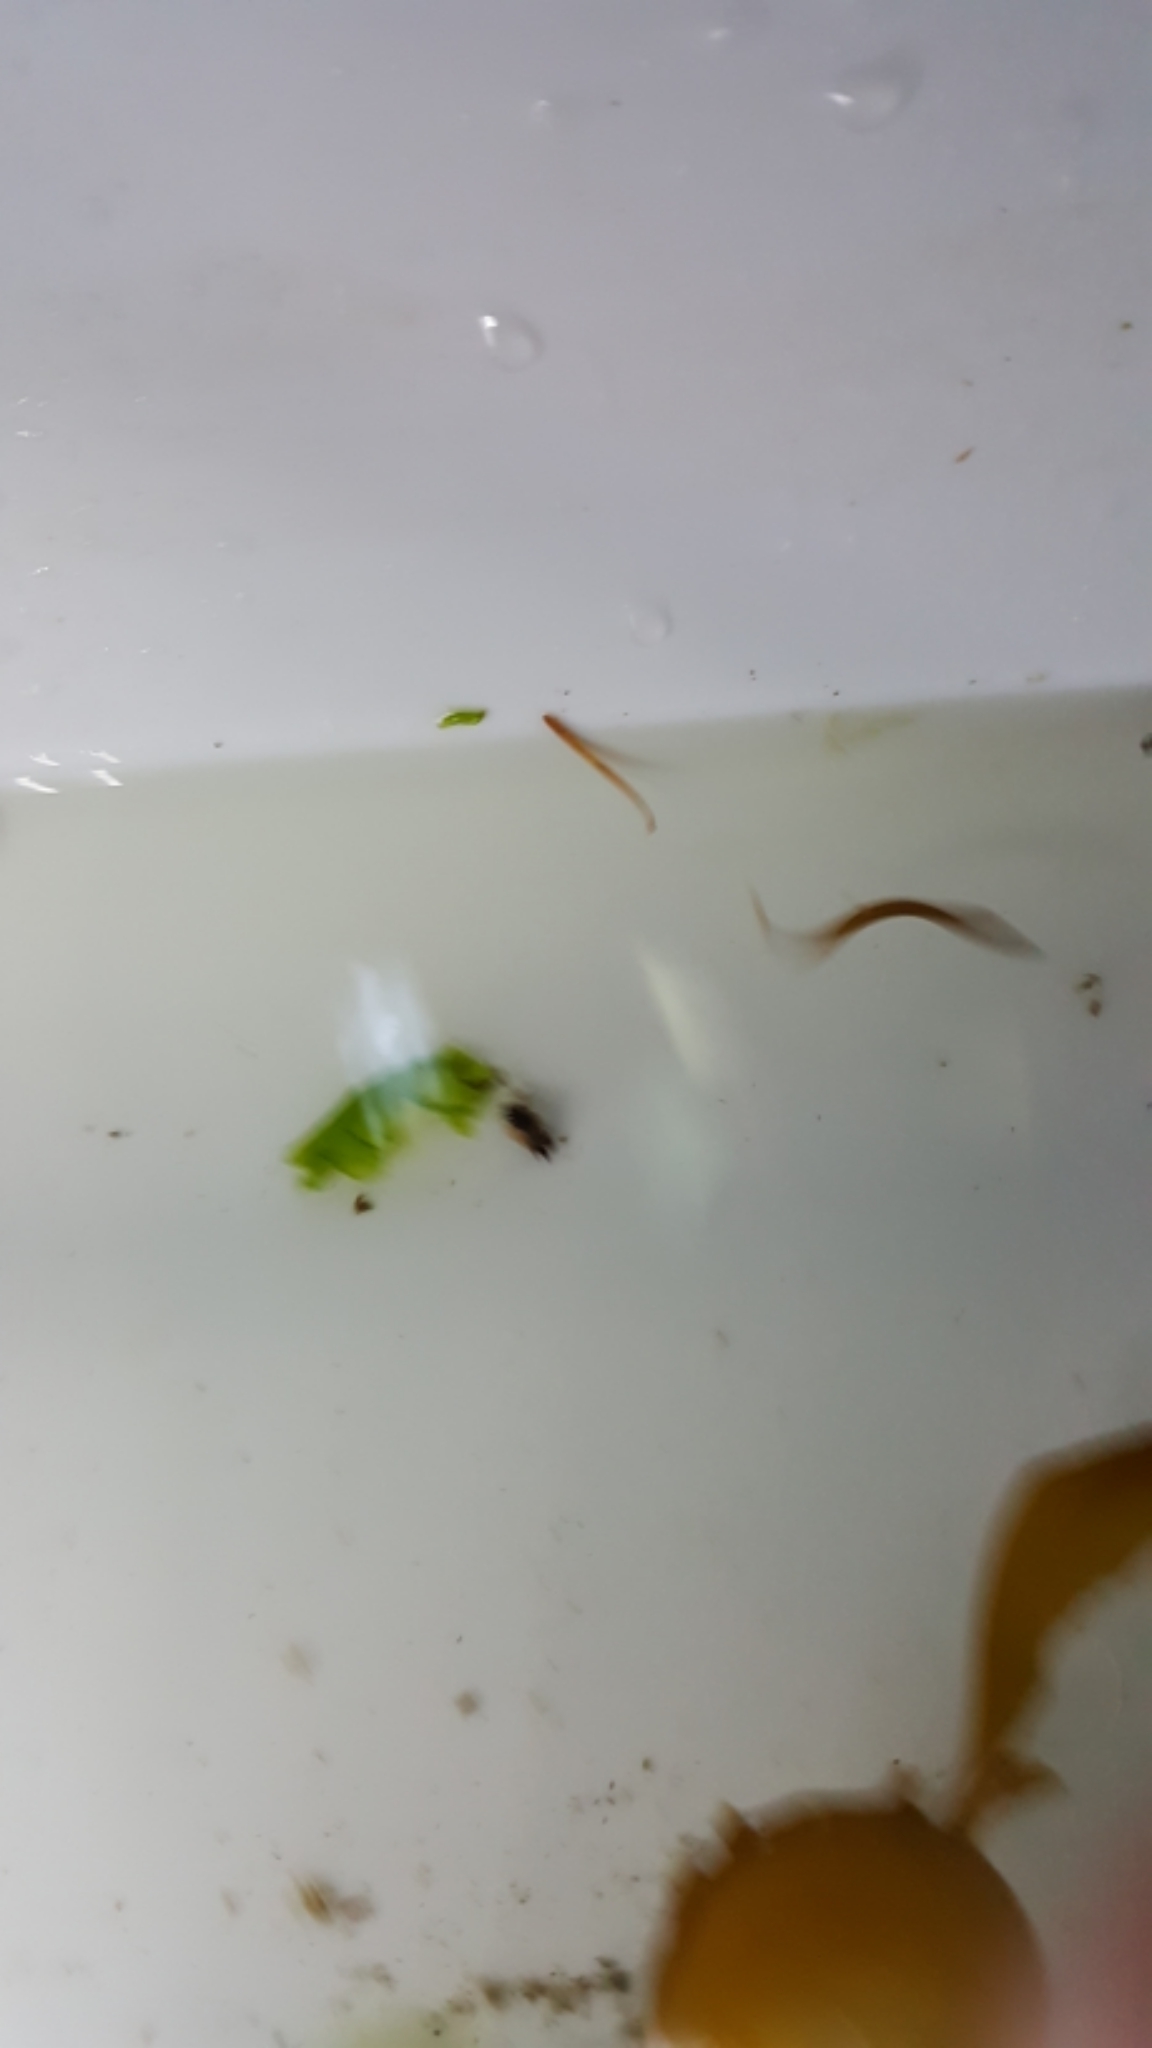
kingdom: Animalia
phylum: Chordata
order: Perciformes
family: Pholidae
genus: Pholis
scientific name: Pholis ornata
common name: Saddleback gunnel
